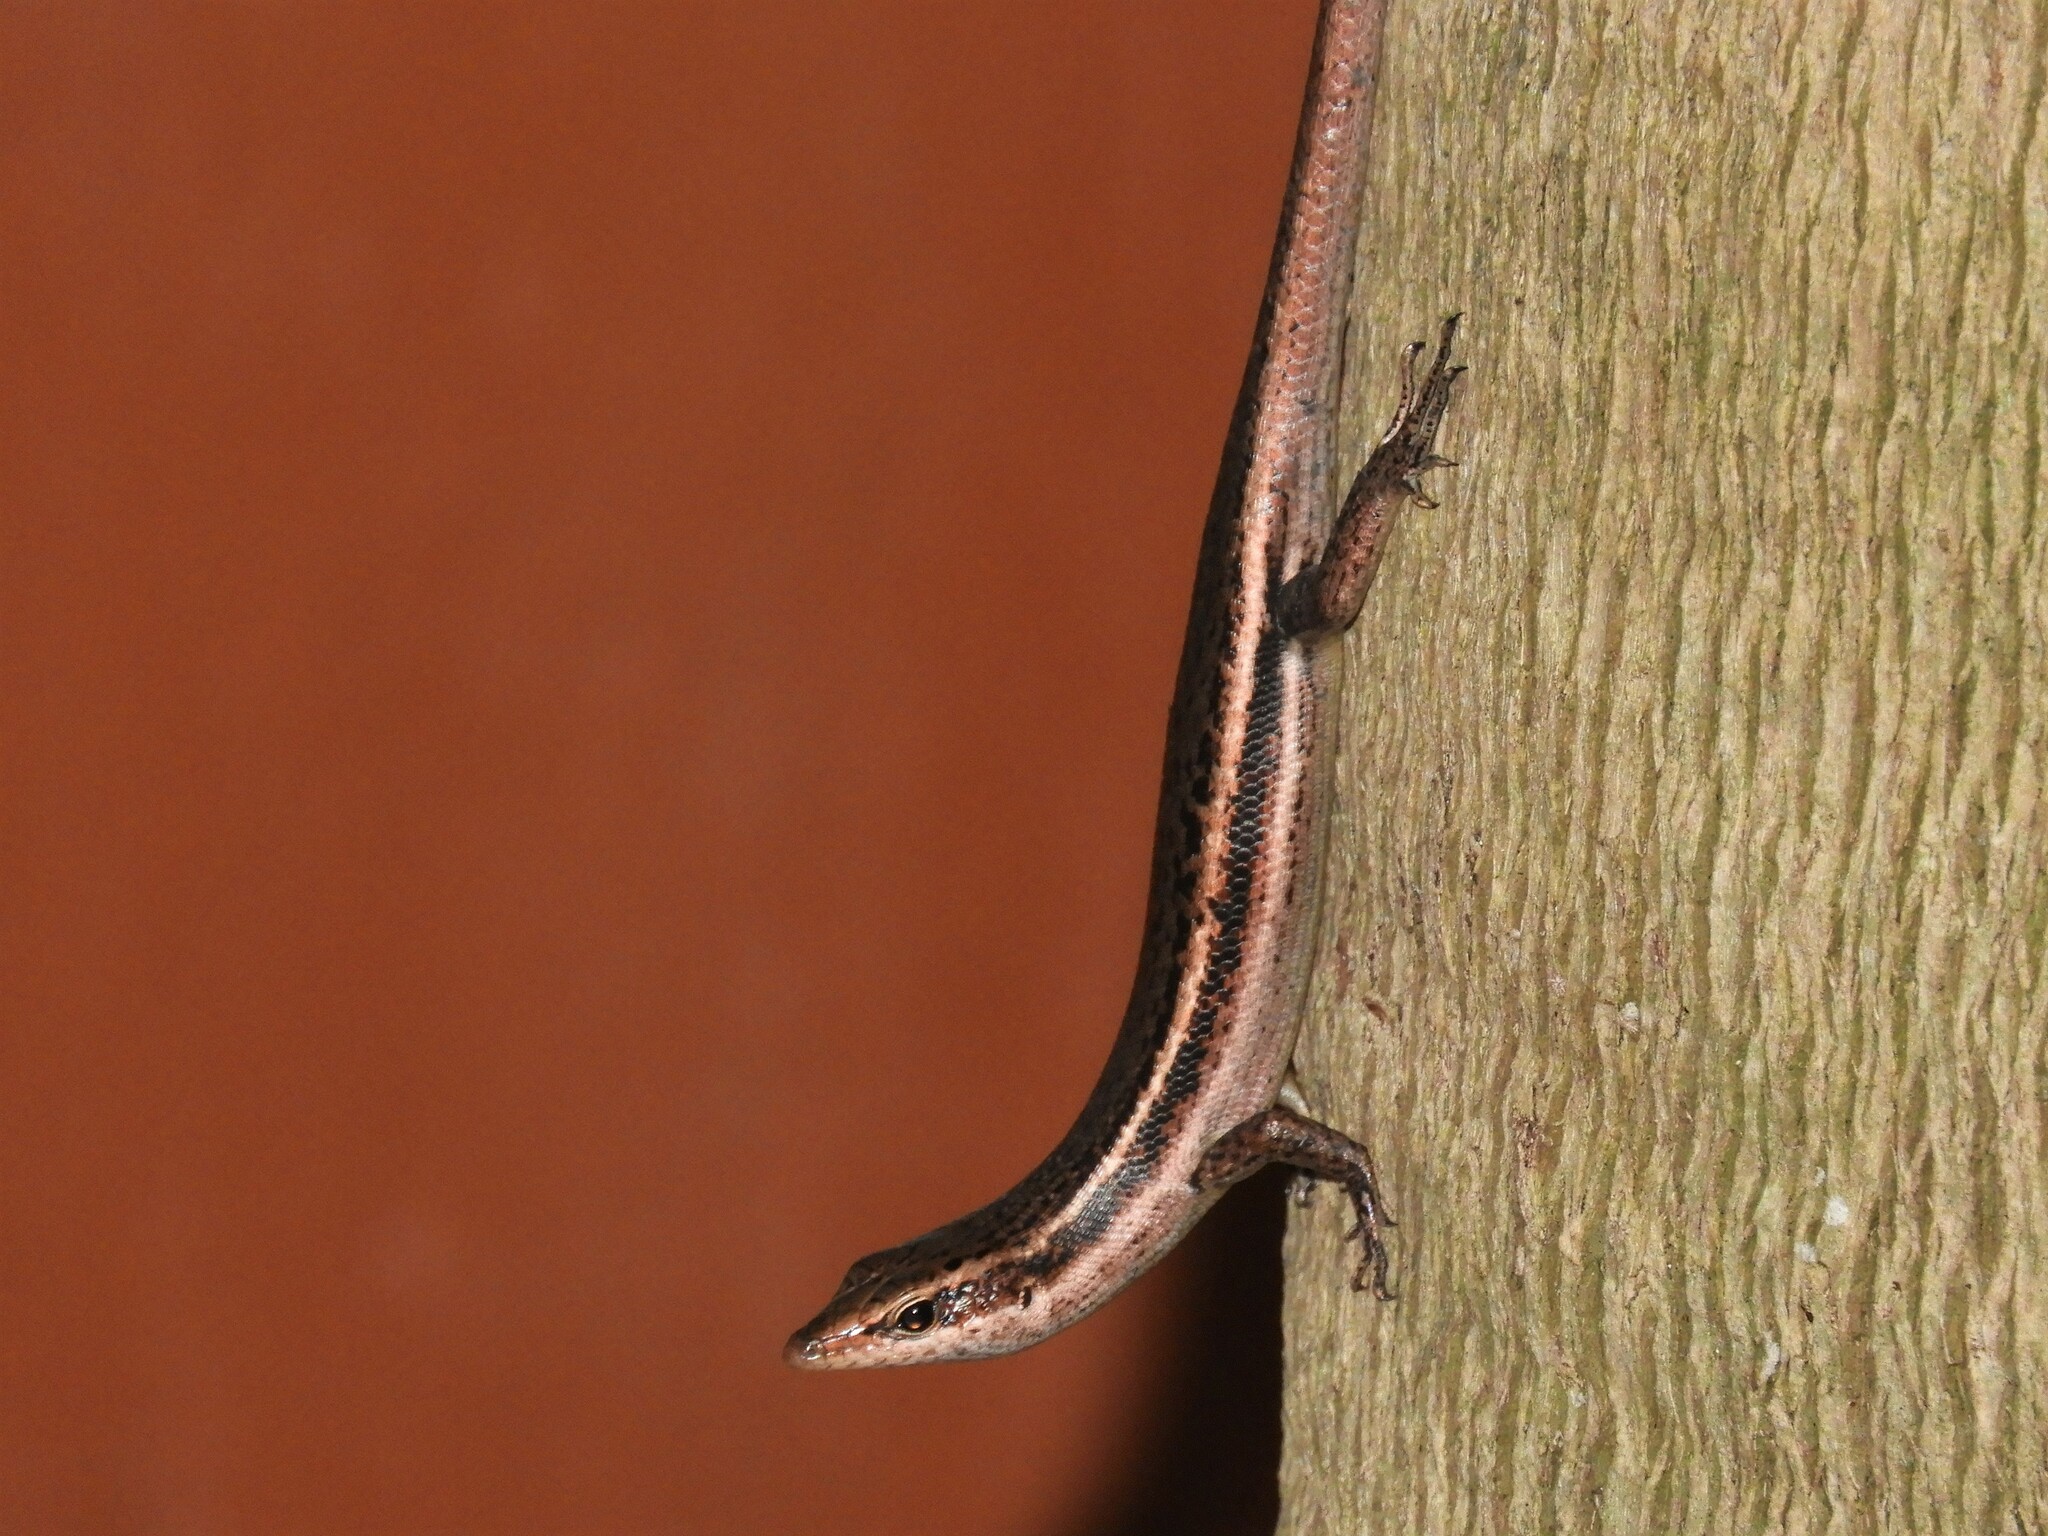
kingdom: Animalia
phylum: Chordata
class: Squamata
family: Scincidae
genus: Trachylepis
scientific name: Trachylepis sechellensis
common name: Seychelles skink
